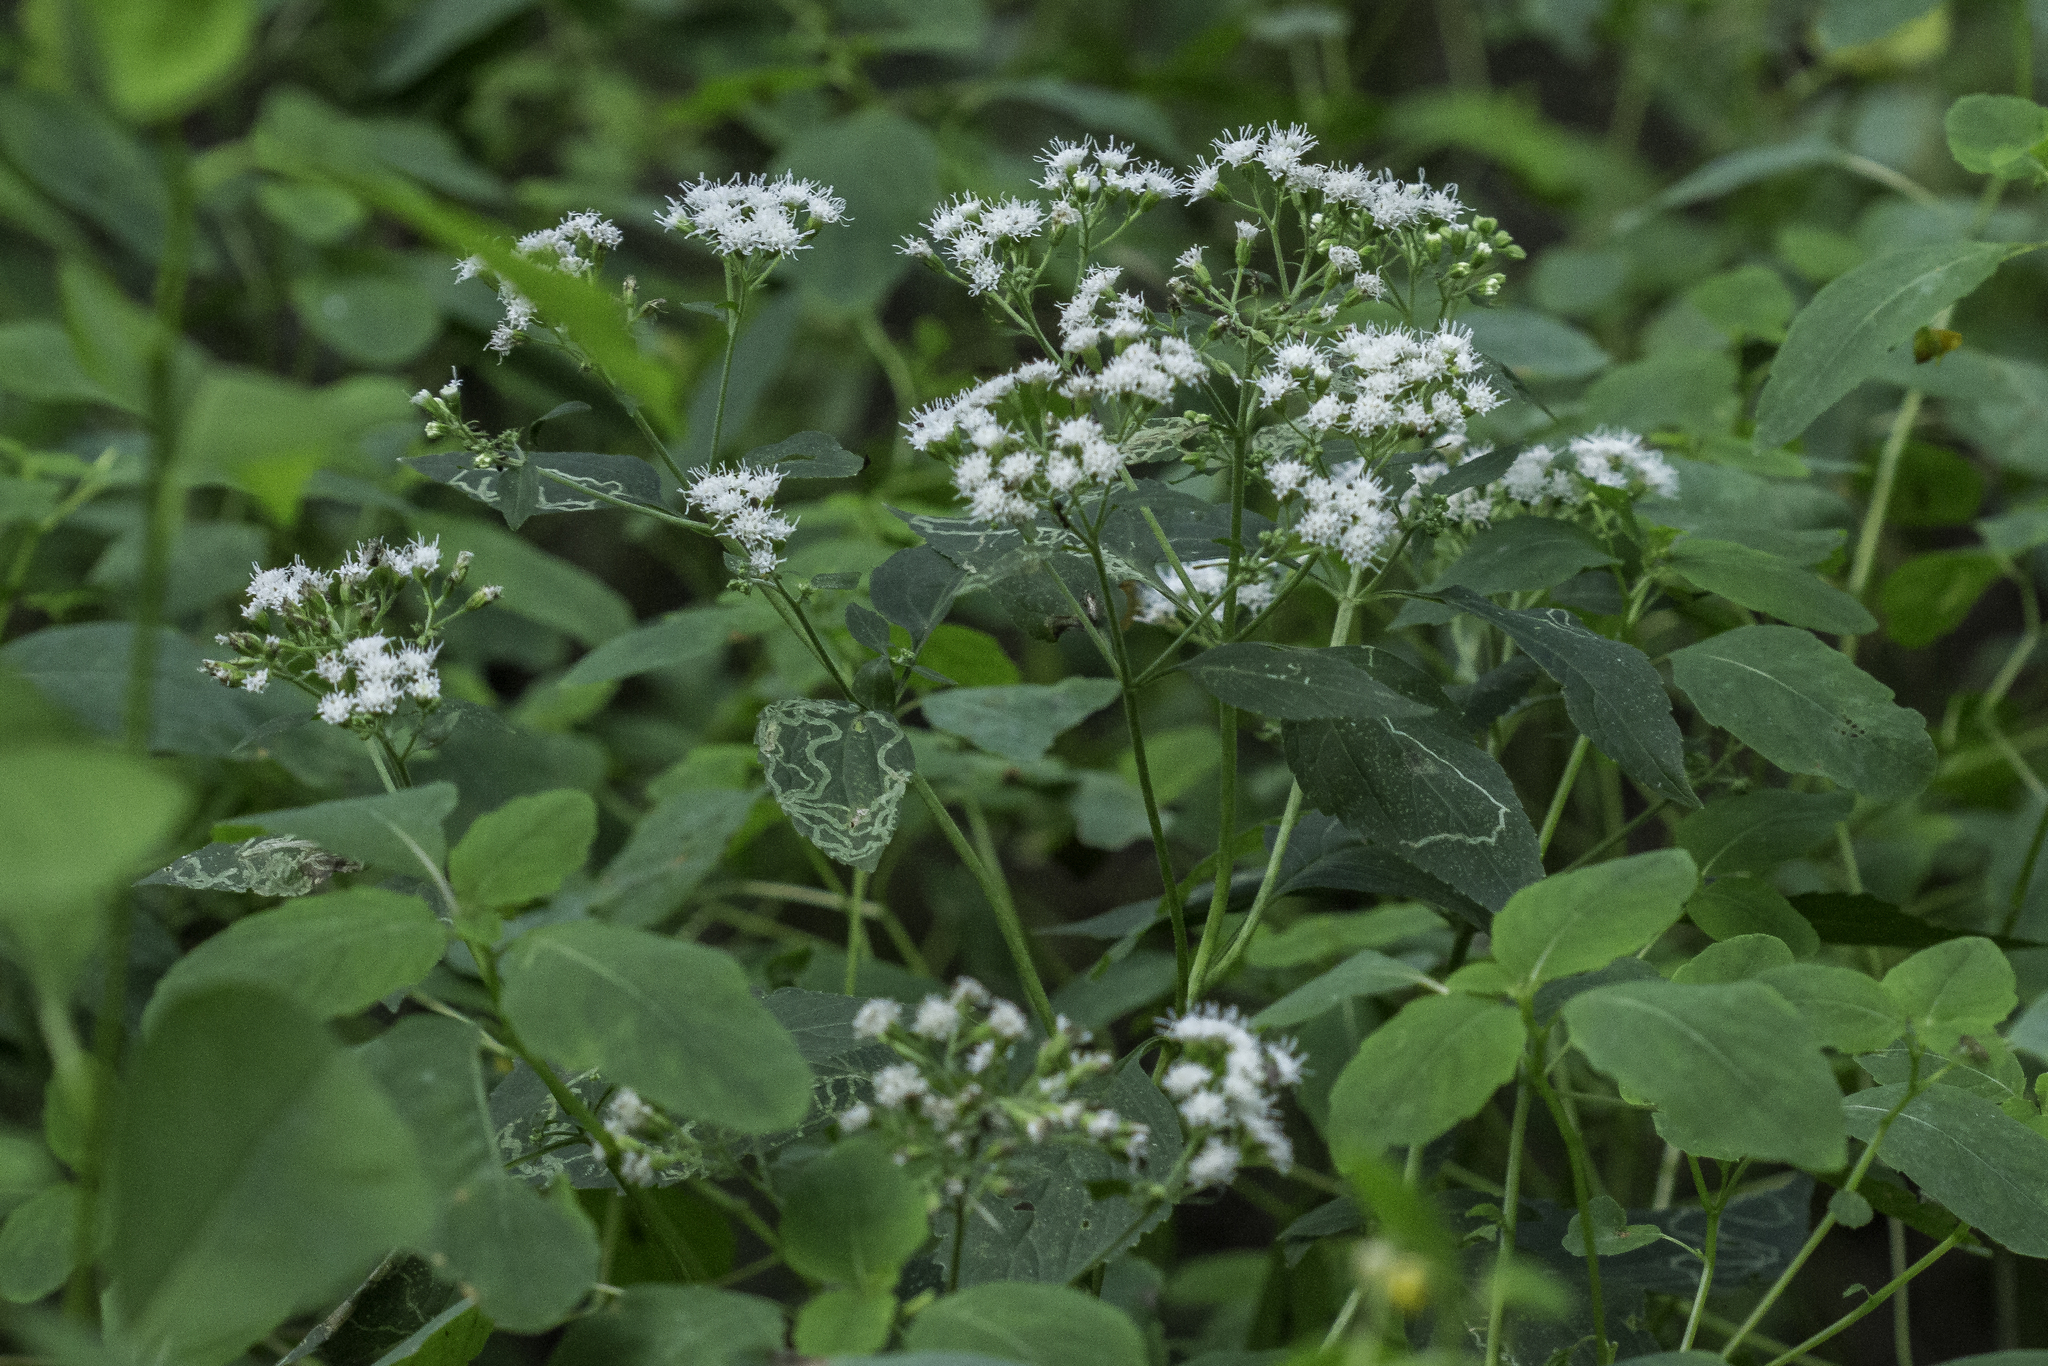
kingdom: Plantae
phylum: Tracheophyta
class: Magnoliopsida
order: Asterales
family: Asteraceae
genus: Ageratina
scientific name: Ageratina altissima
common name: White snakeroot
